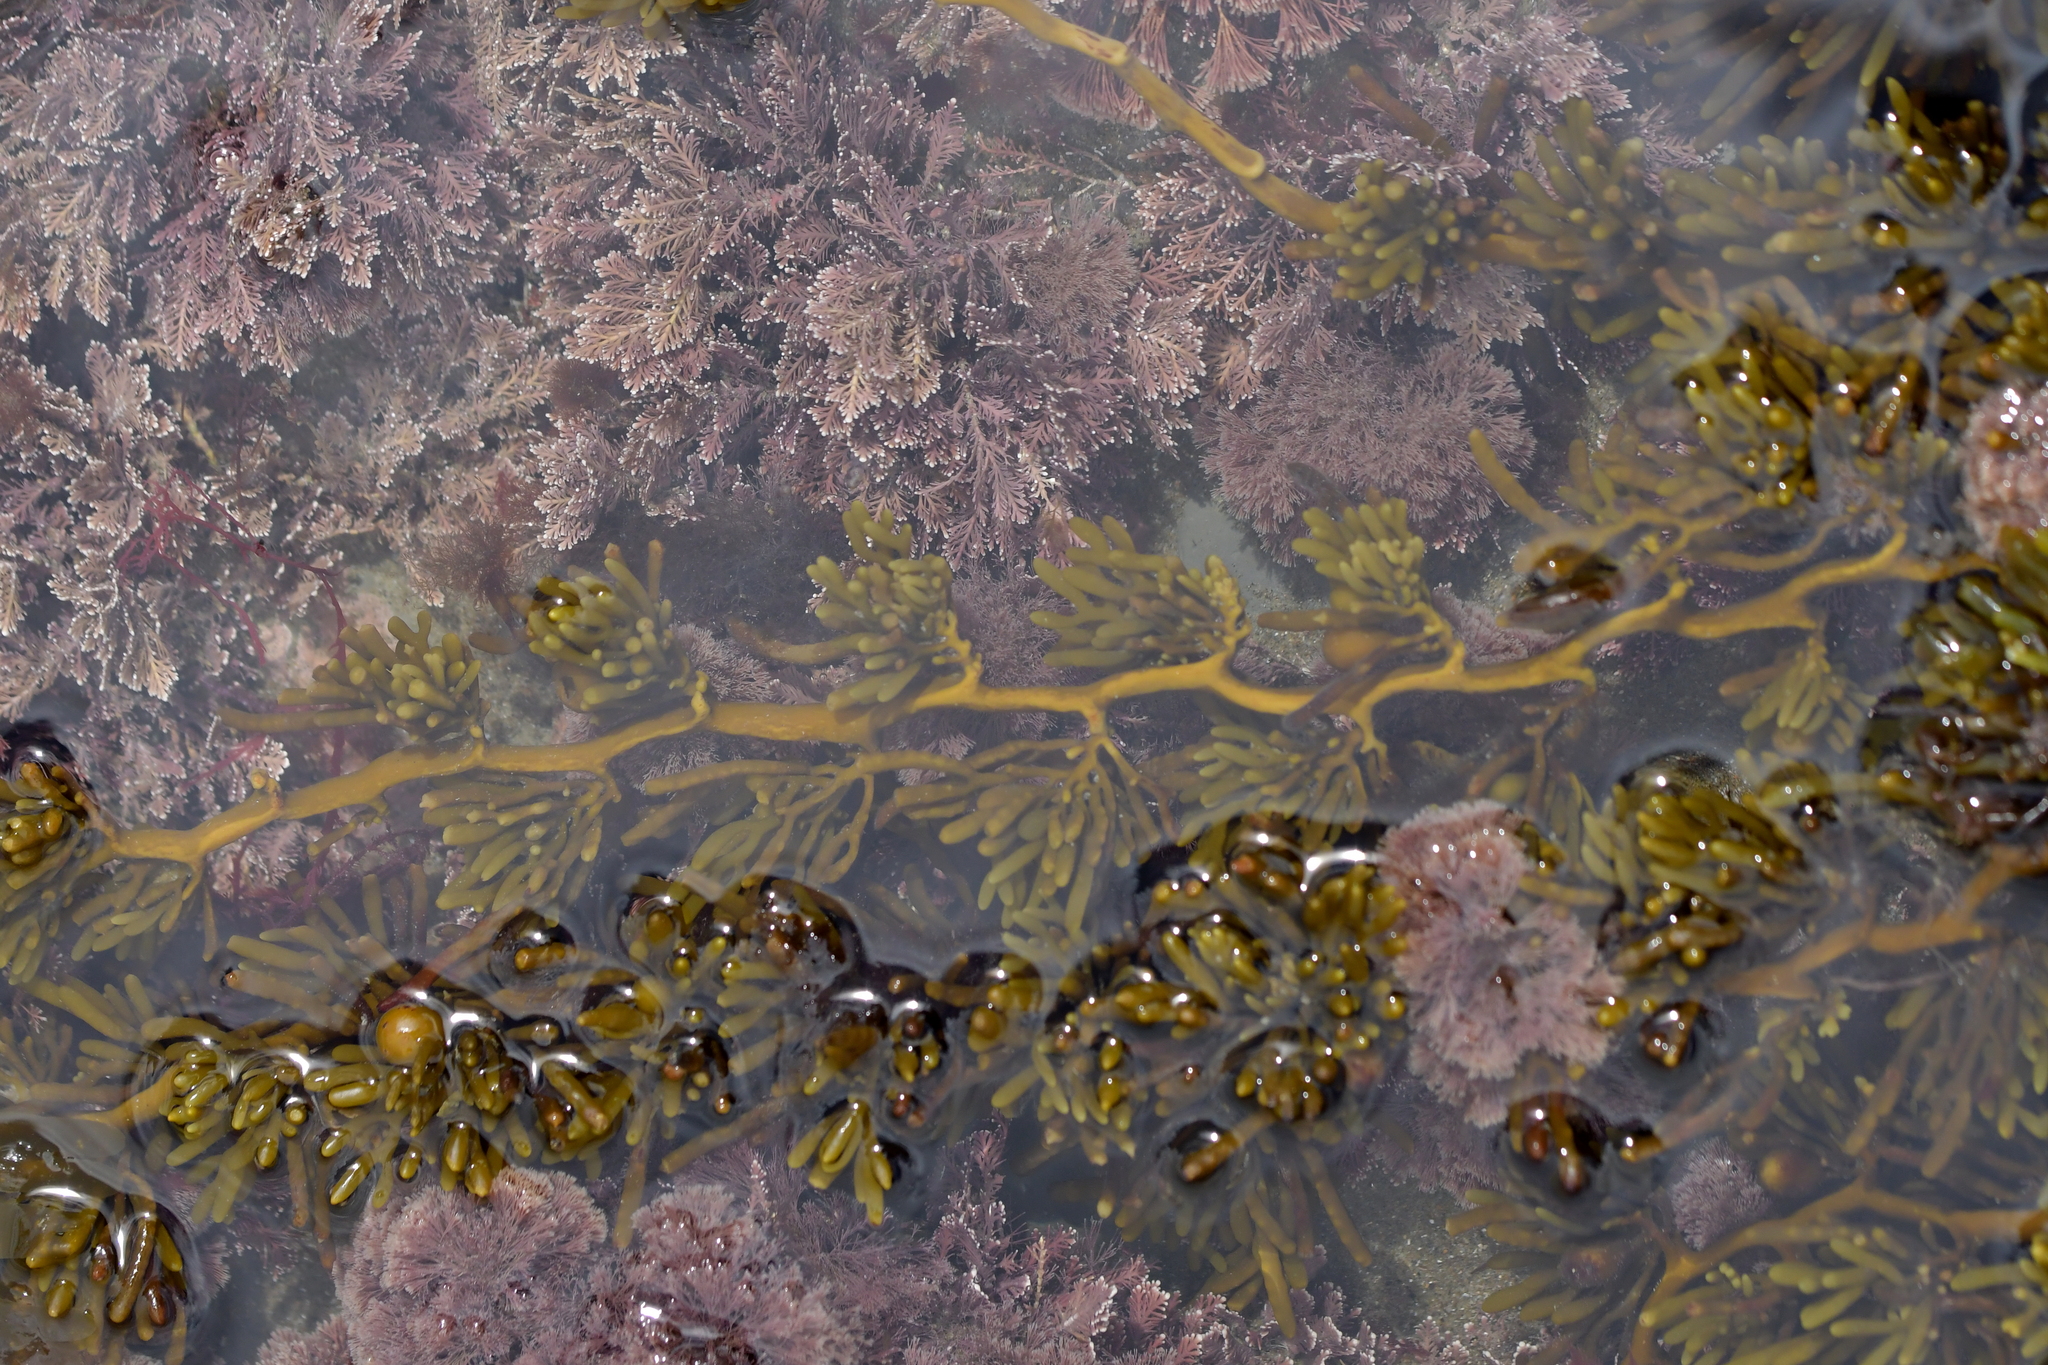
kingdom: Chromista
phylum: Ochrophyta
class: Phaeophyceae
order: Fucales
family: Sargassaceae
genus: Cystophora
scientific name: Cystophora torulosa
